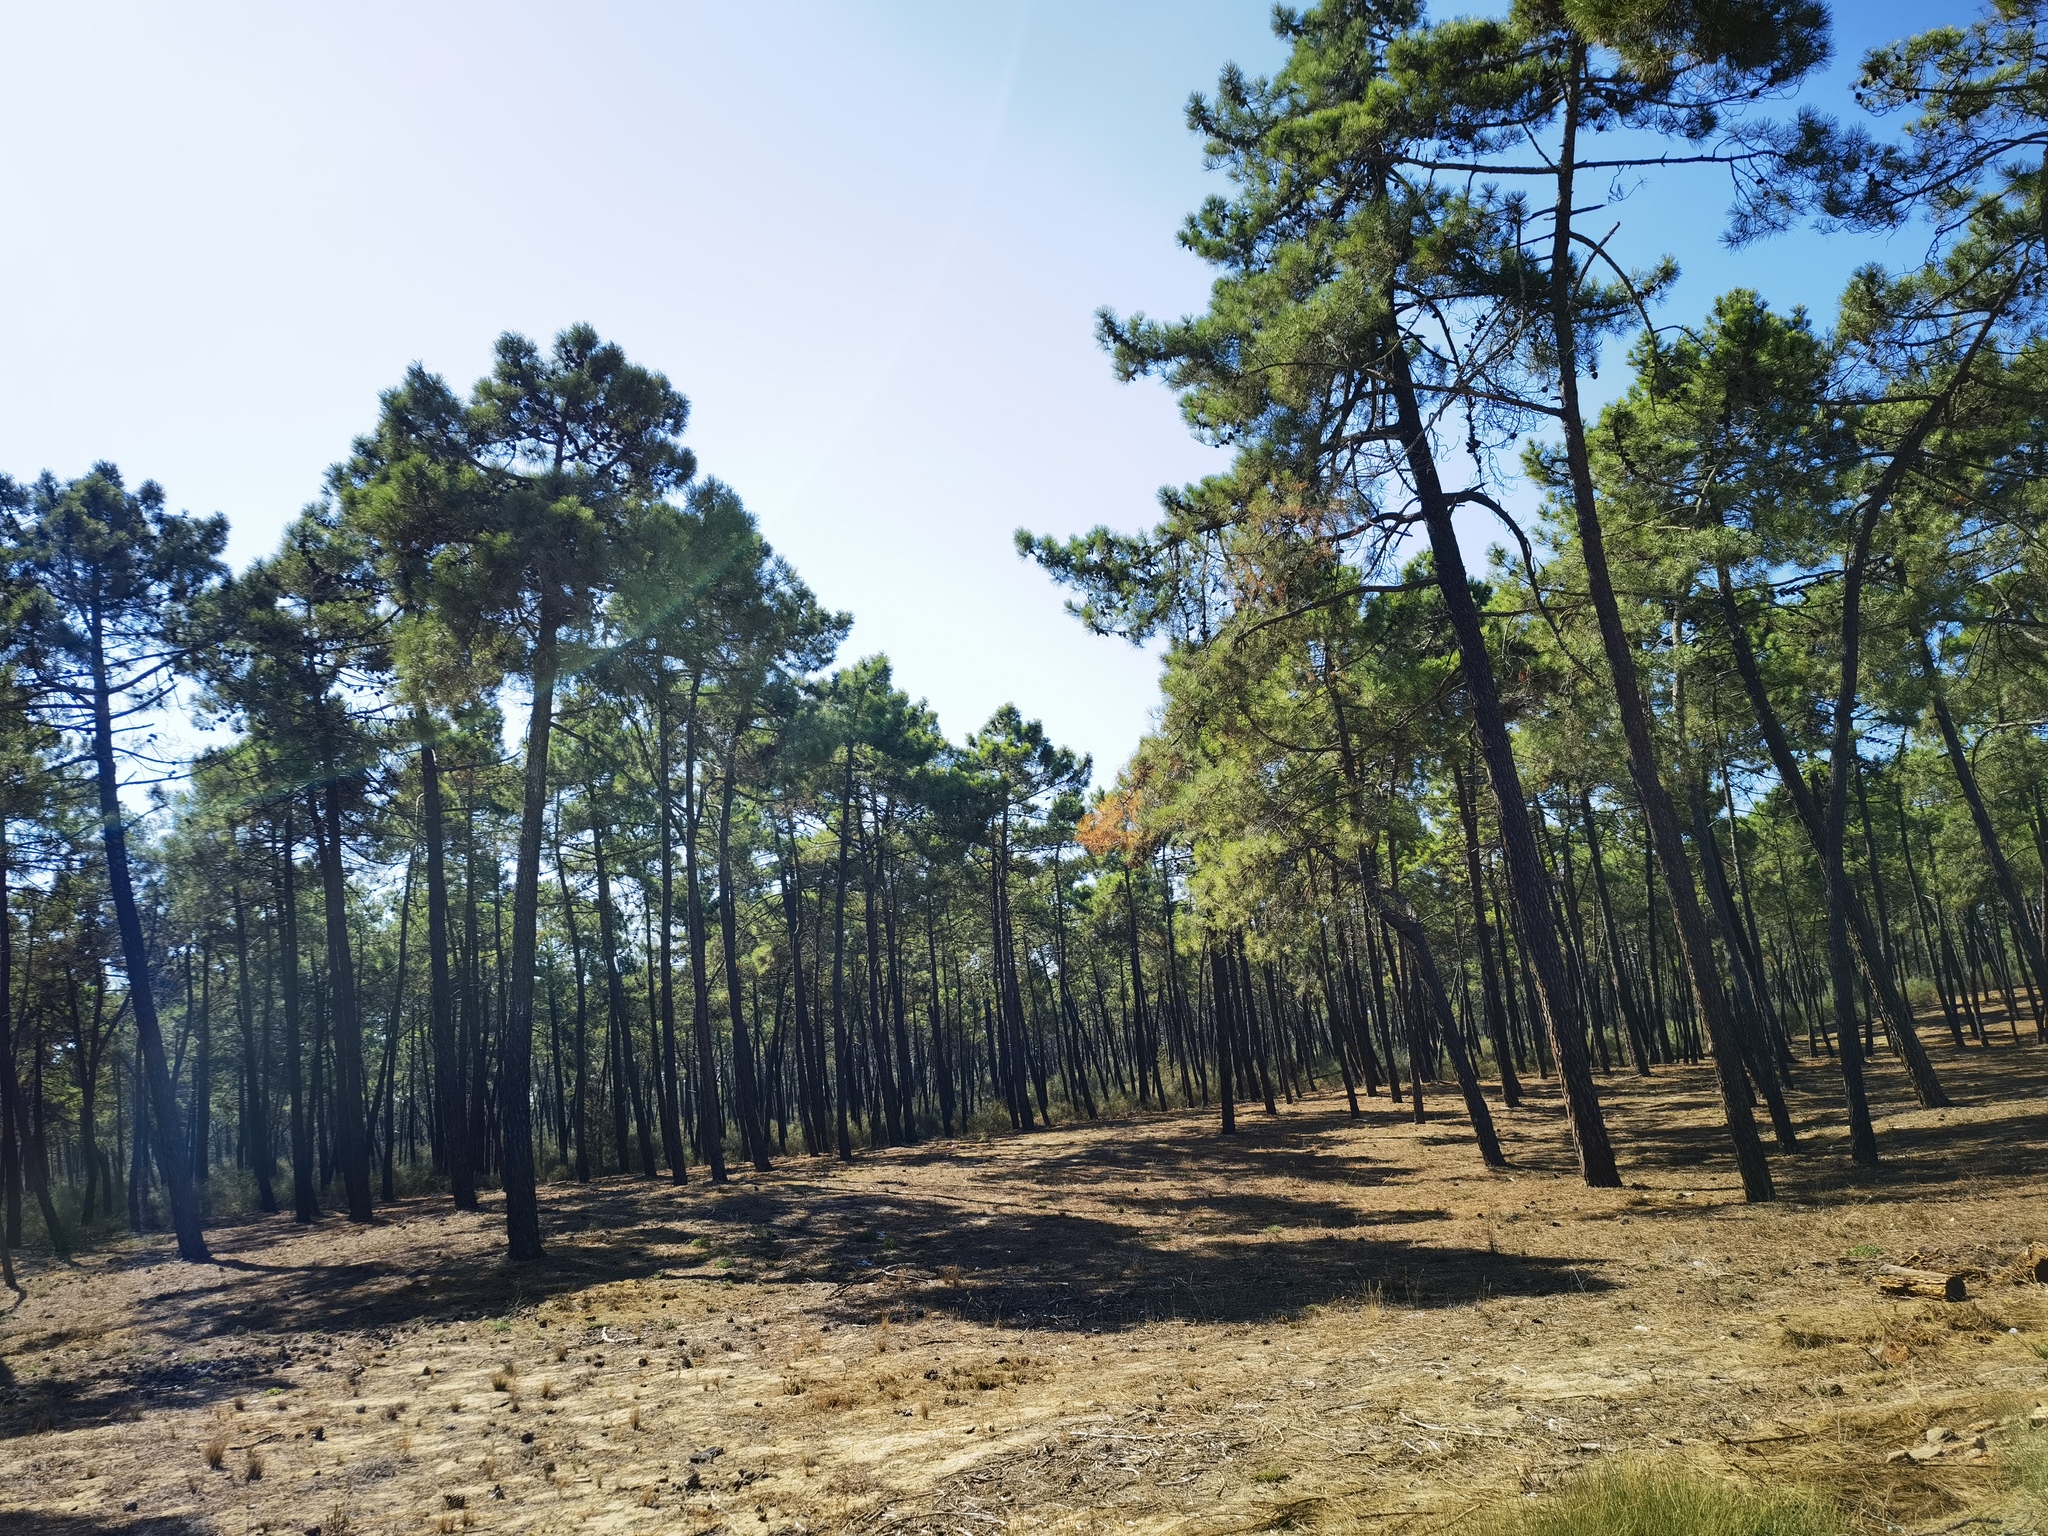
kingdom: Plantae
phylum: Tracheophyta
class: Pinopsida
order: Pinales
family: Pinaceae
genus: Pinus
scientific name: Pinus pinaster
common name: Maritime pine
